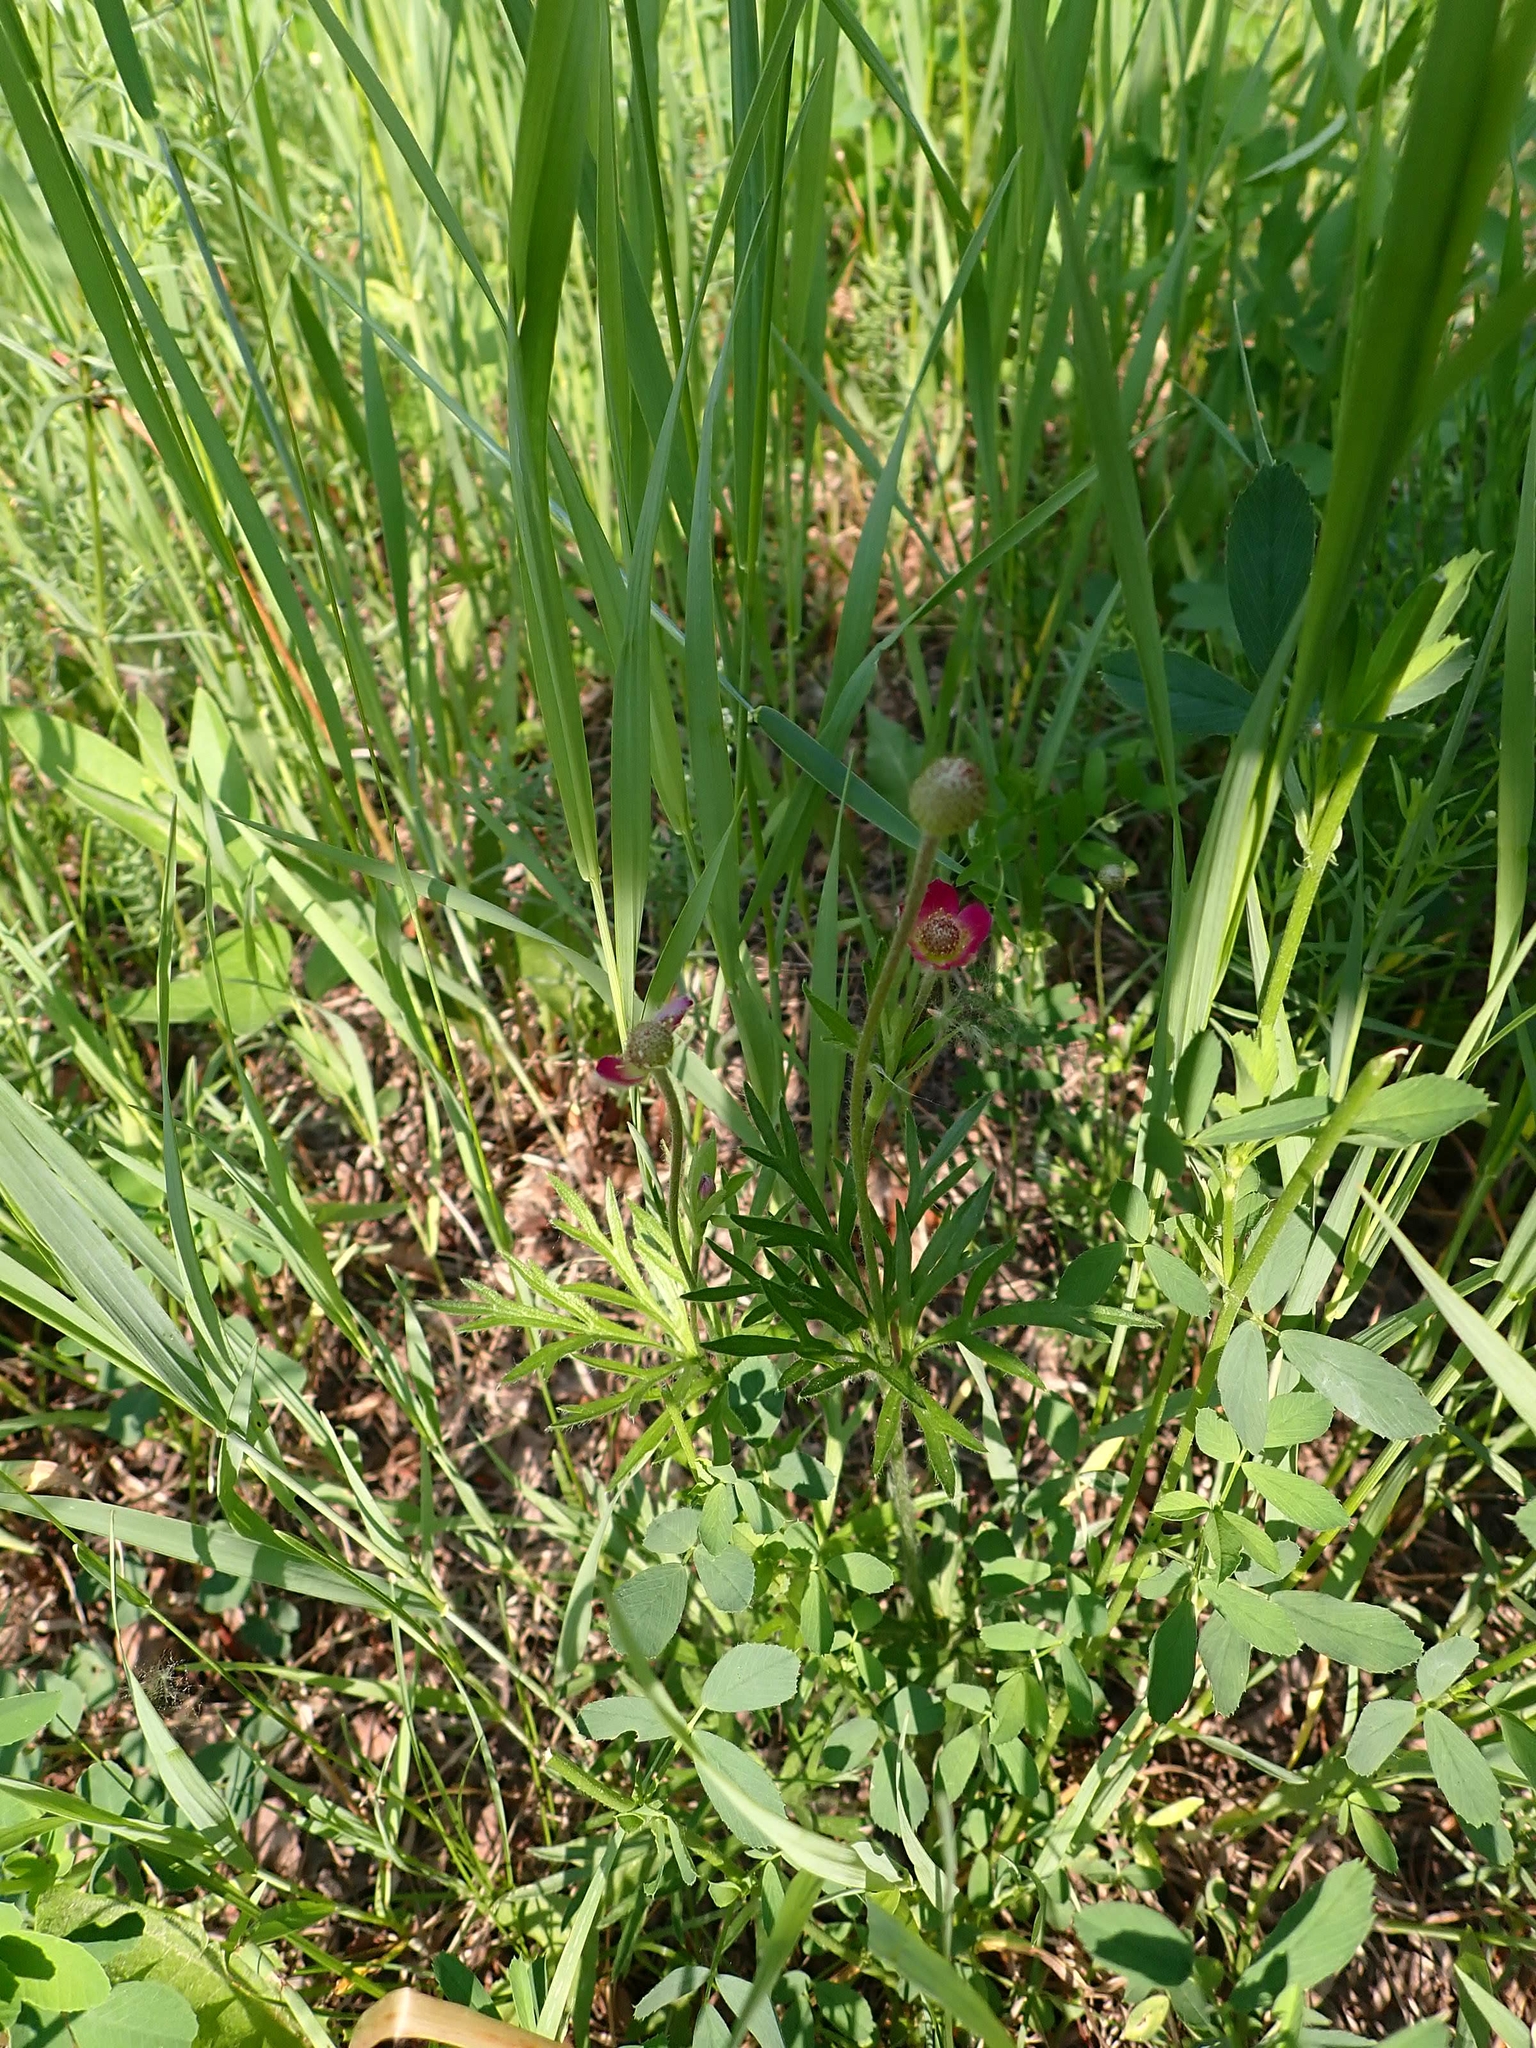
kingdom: Plantae
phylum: Tracheophyta
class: Magnoliopsida
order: Ranunculales
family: Ranunculaceae
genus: Anemone
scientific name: Anemone multifida
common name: Bird's-foot anemone
